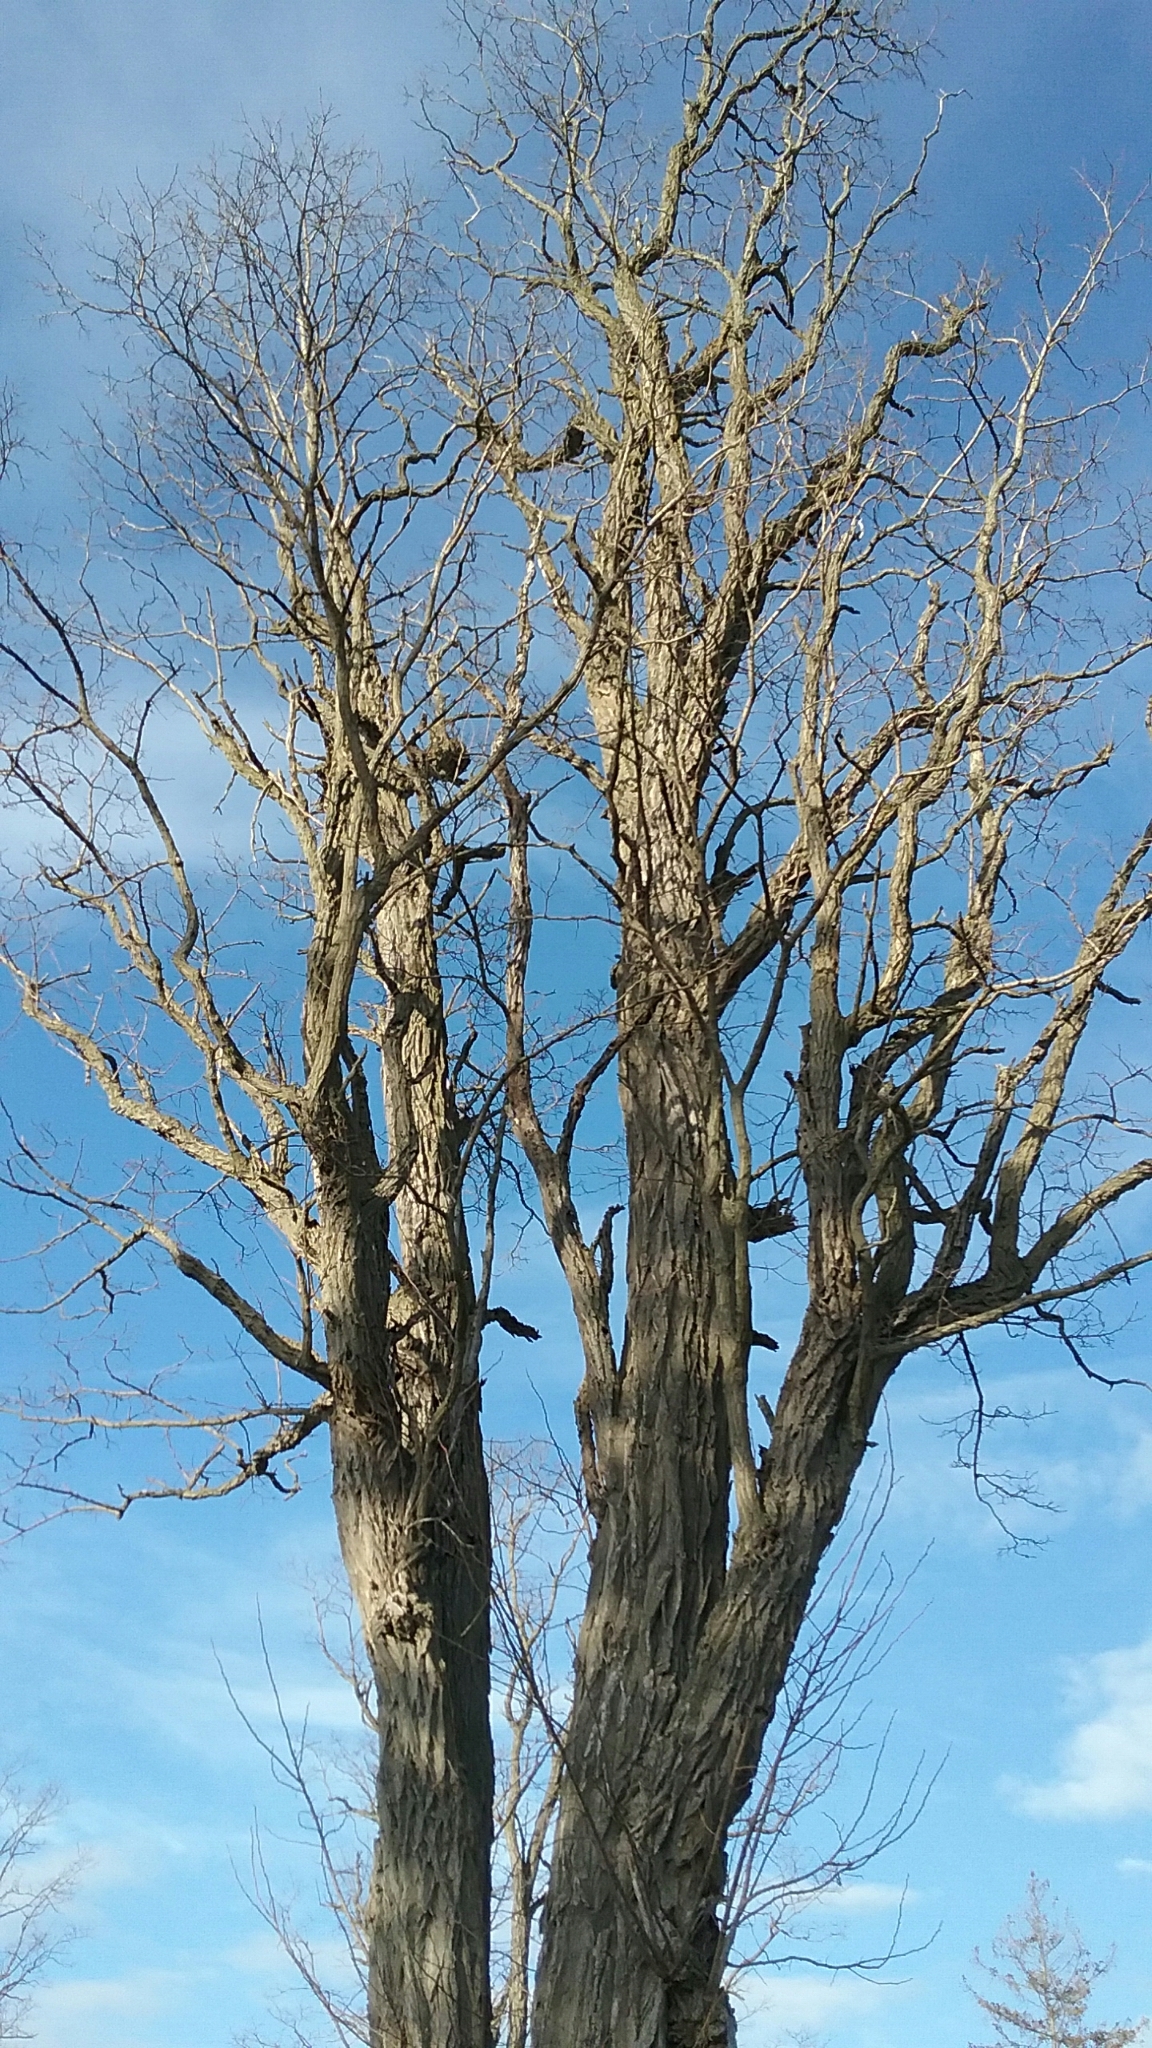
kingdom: Plantae
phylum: Tracheophyta
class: Magnoliopsida
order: Fabales
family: Fabaceae
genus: Robinia
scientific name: Robinia pseudoacacia
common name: Black locust
